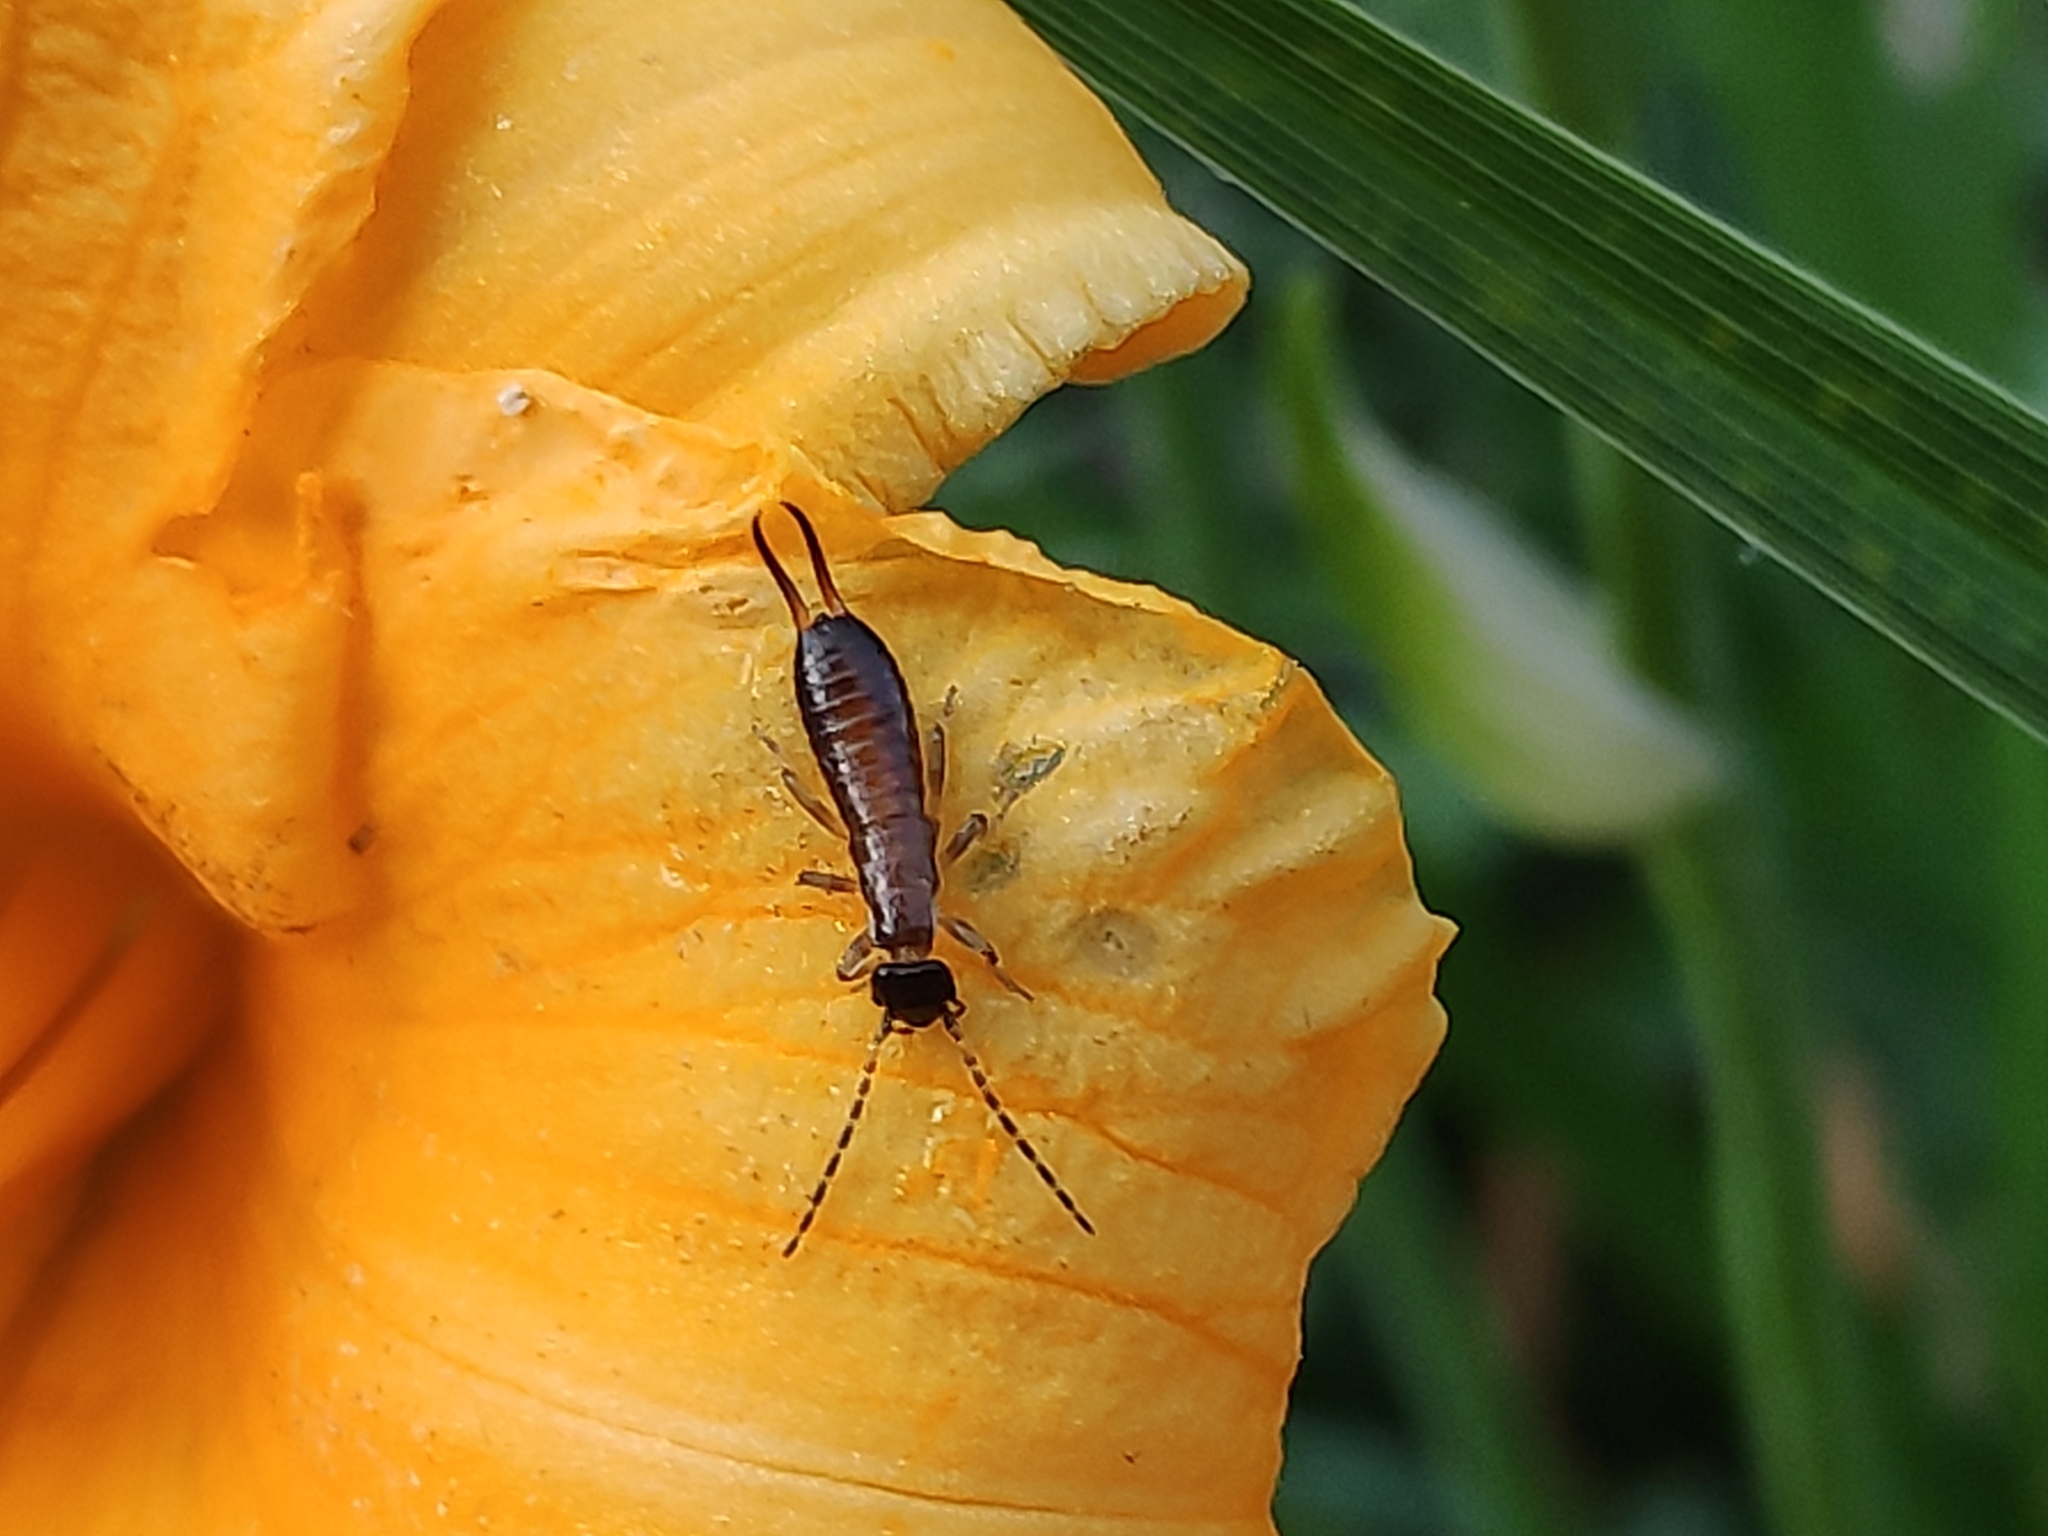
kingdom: Animalia
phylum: Arthropoda
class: Insecta
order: Dermaptera
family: Forficulidae
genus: Forficula
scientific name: Forficula
